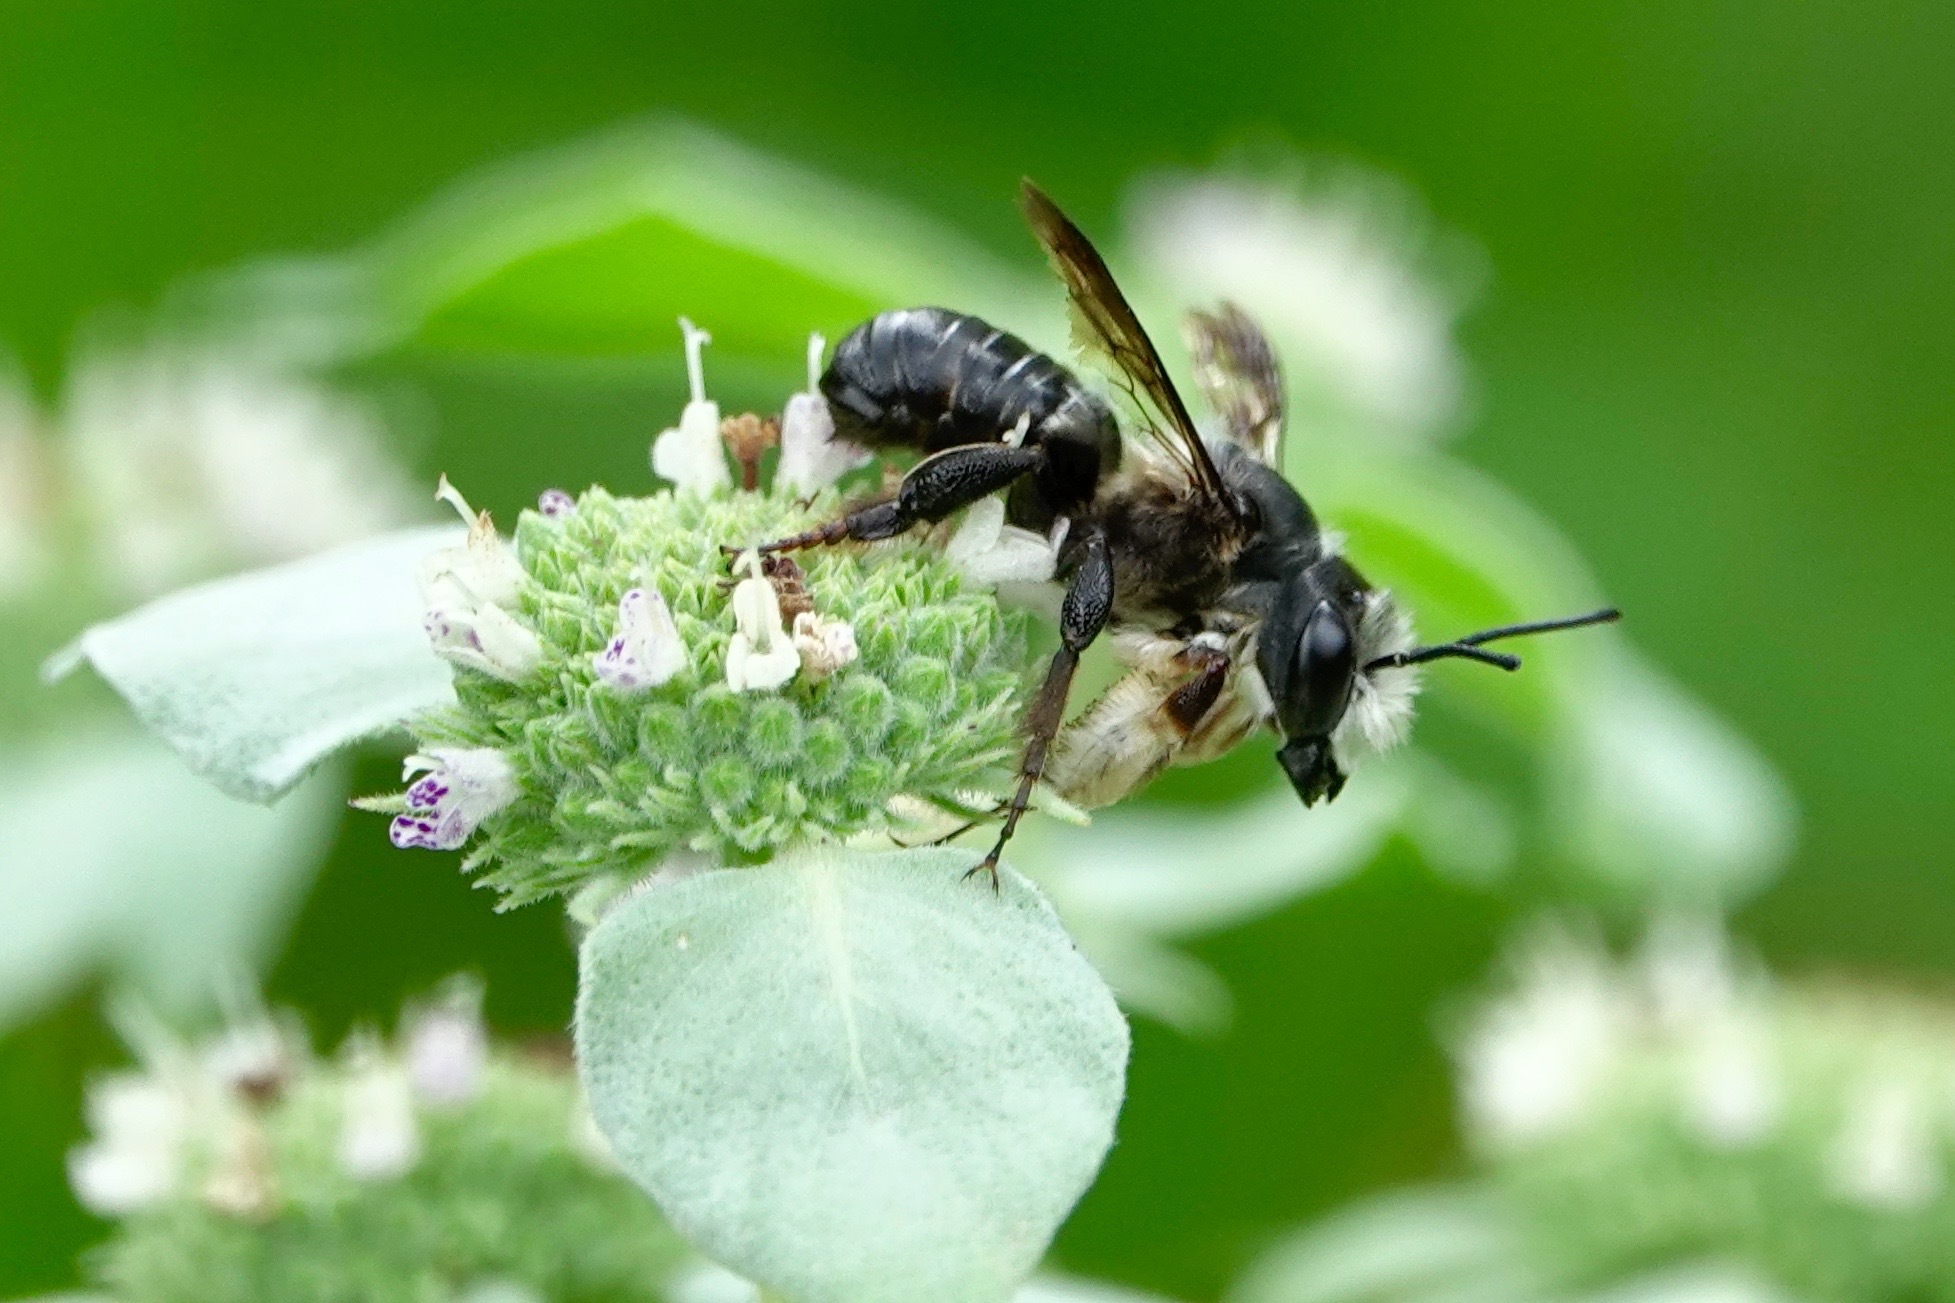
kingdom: Animalia
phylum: Arthropoda
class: Insecta
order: Hymenoptera
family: Megachilidae
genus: Megachile
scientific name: Megachile xylocopoides
